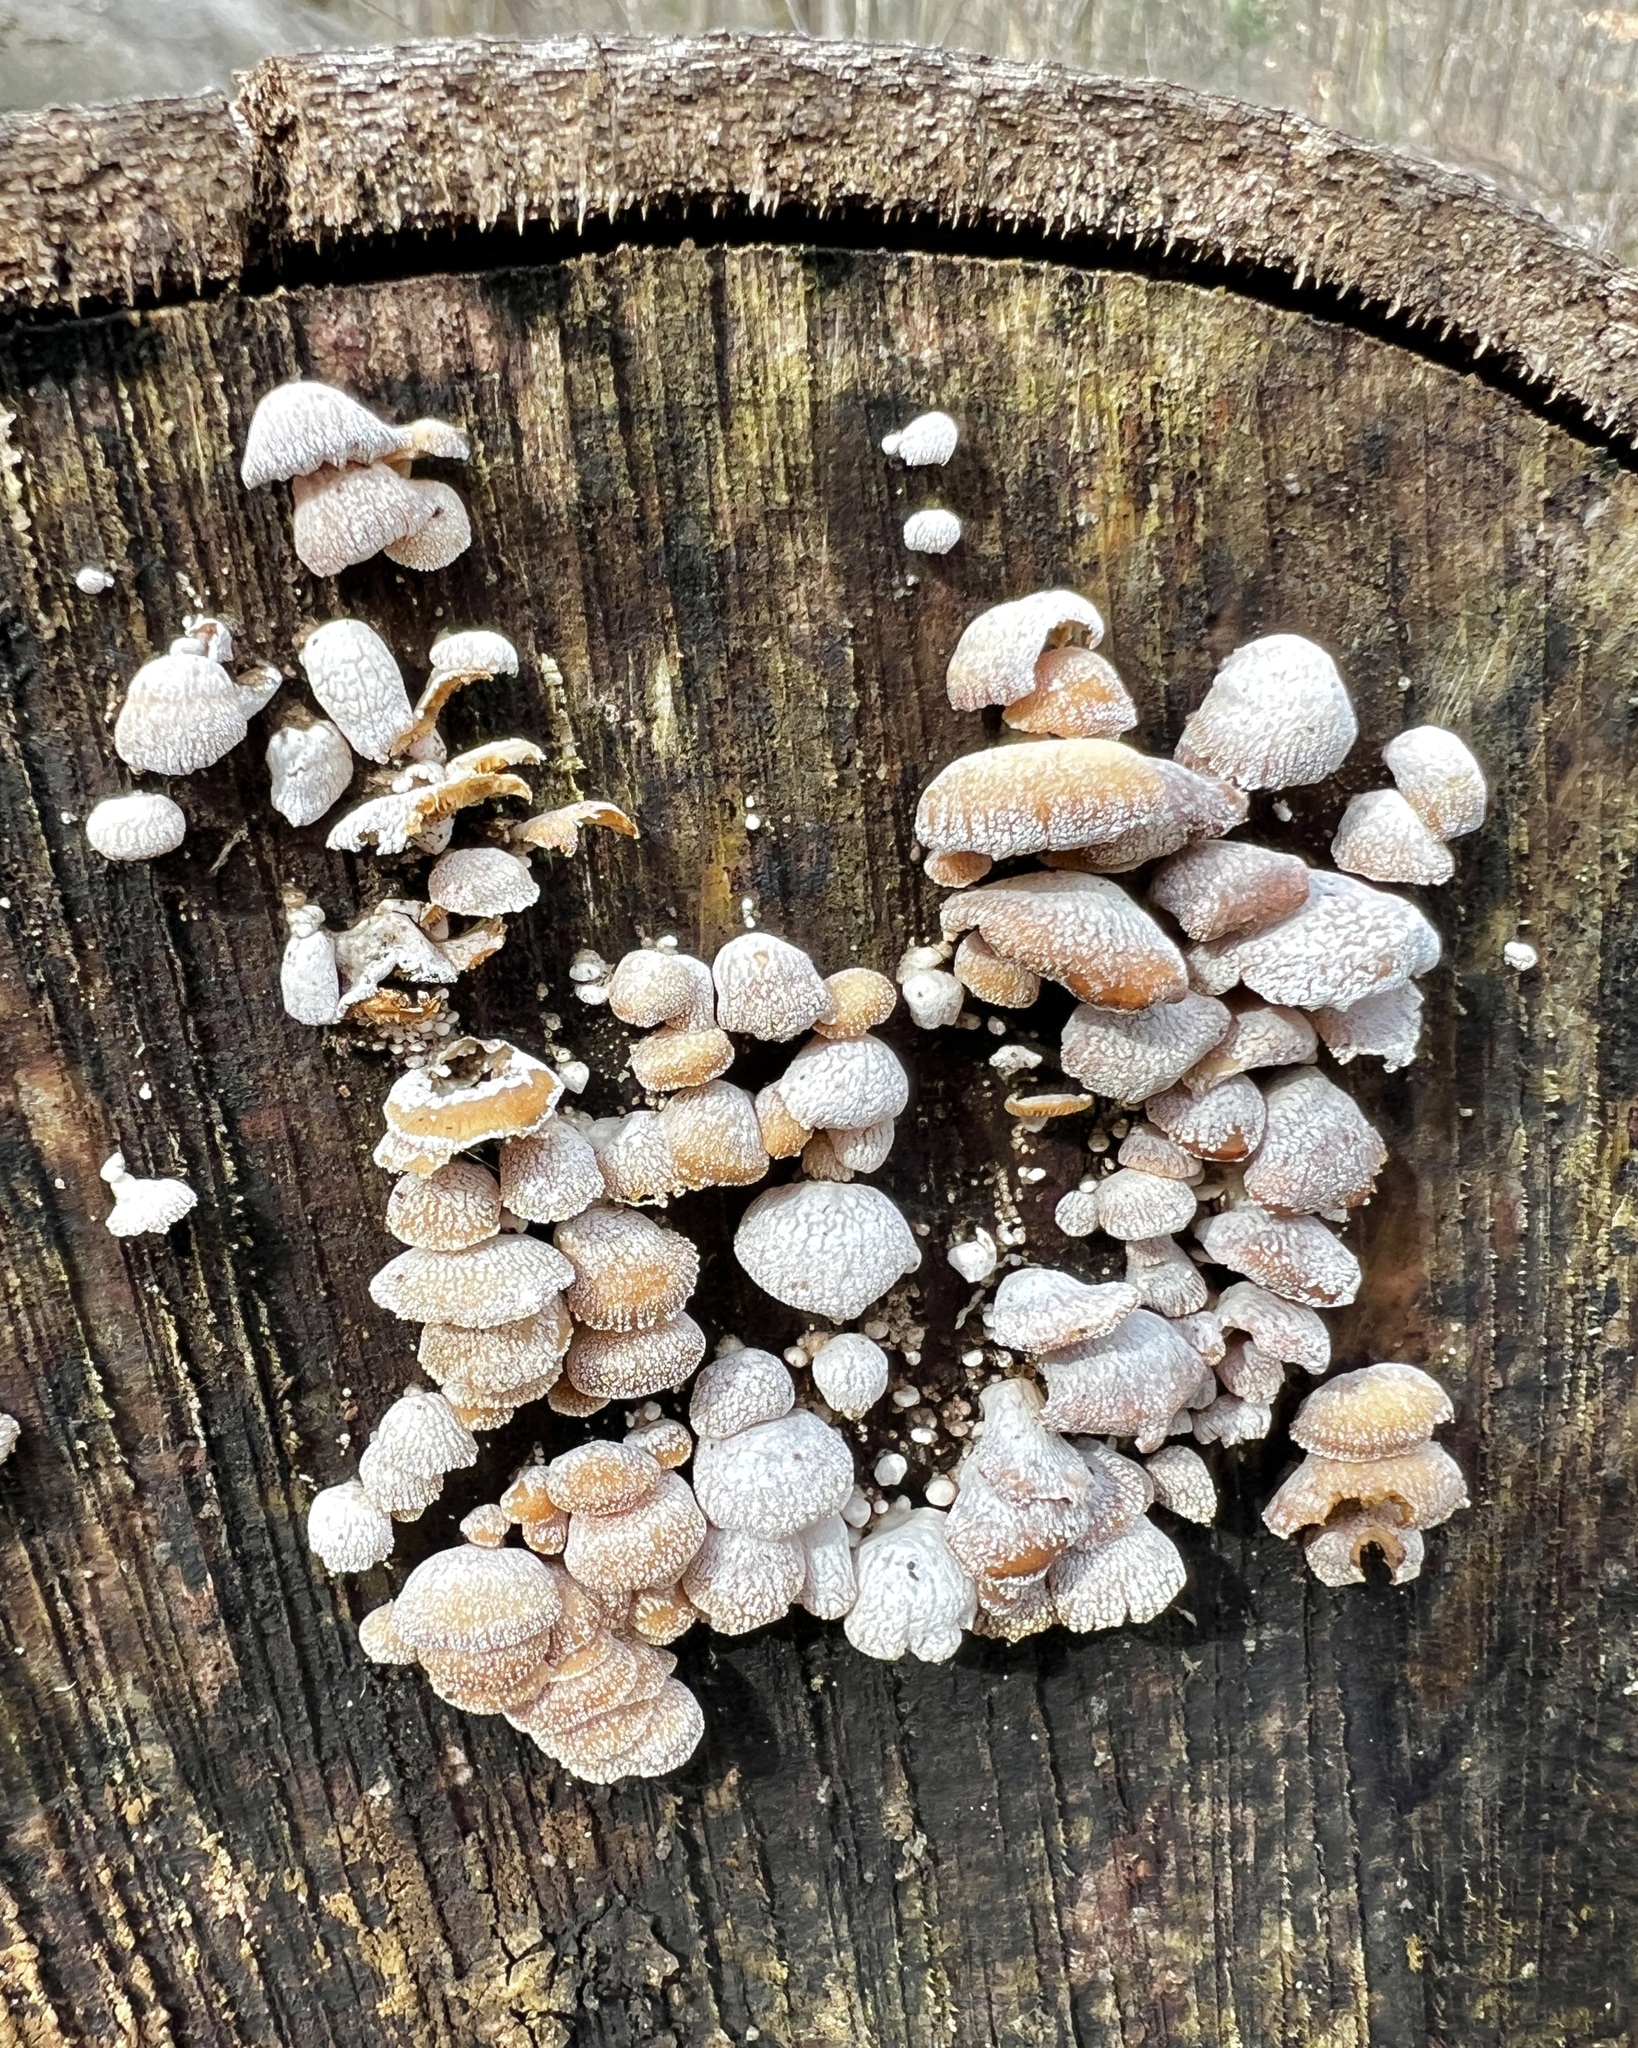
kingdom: Fungi
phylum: Basidiomycota
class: Agaricomycetes
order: Agaricales
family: Mycenaceae
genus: Panellus
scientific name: Panellus stipticus
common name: Bitter oysterling
